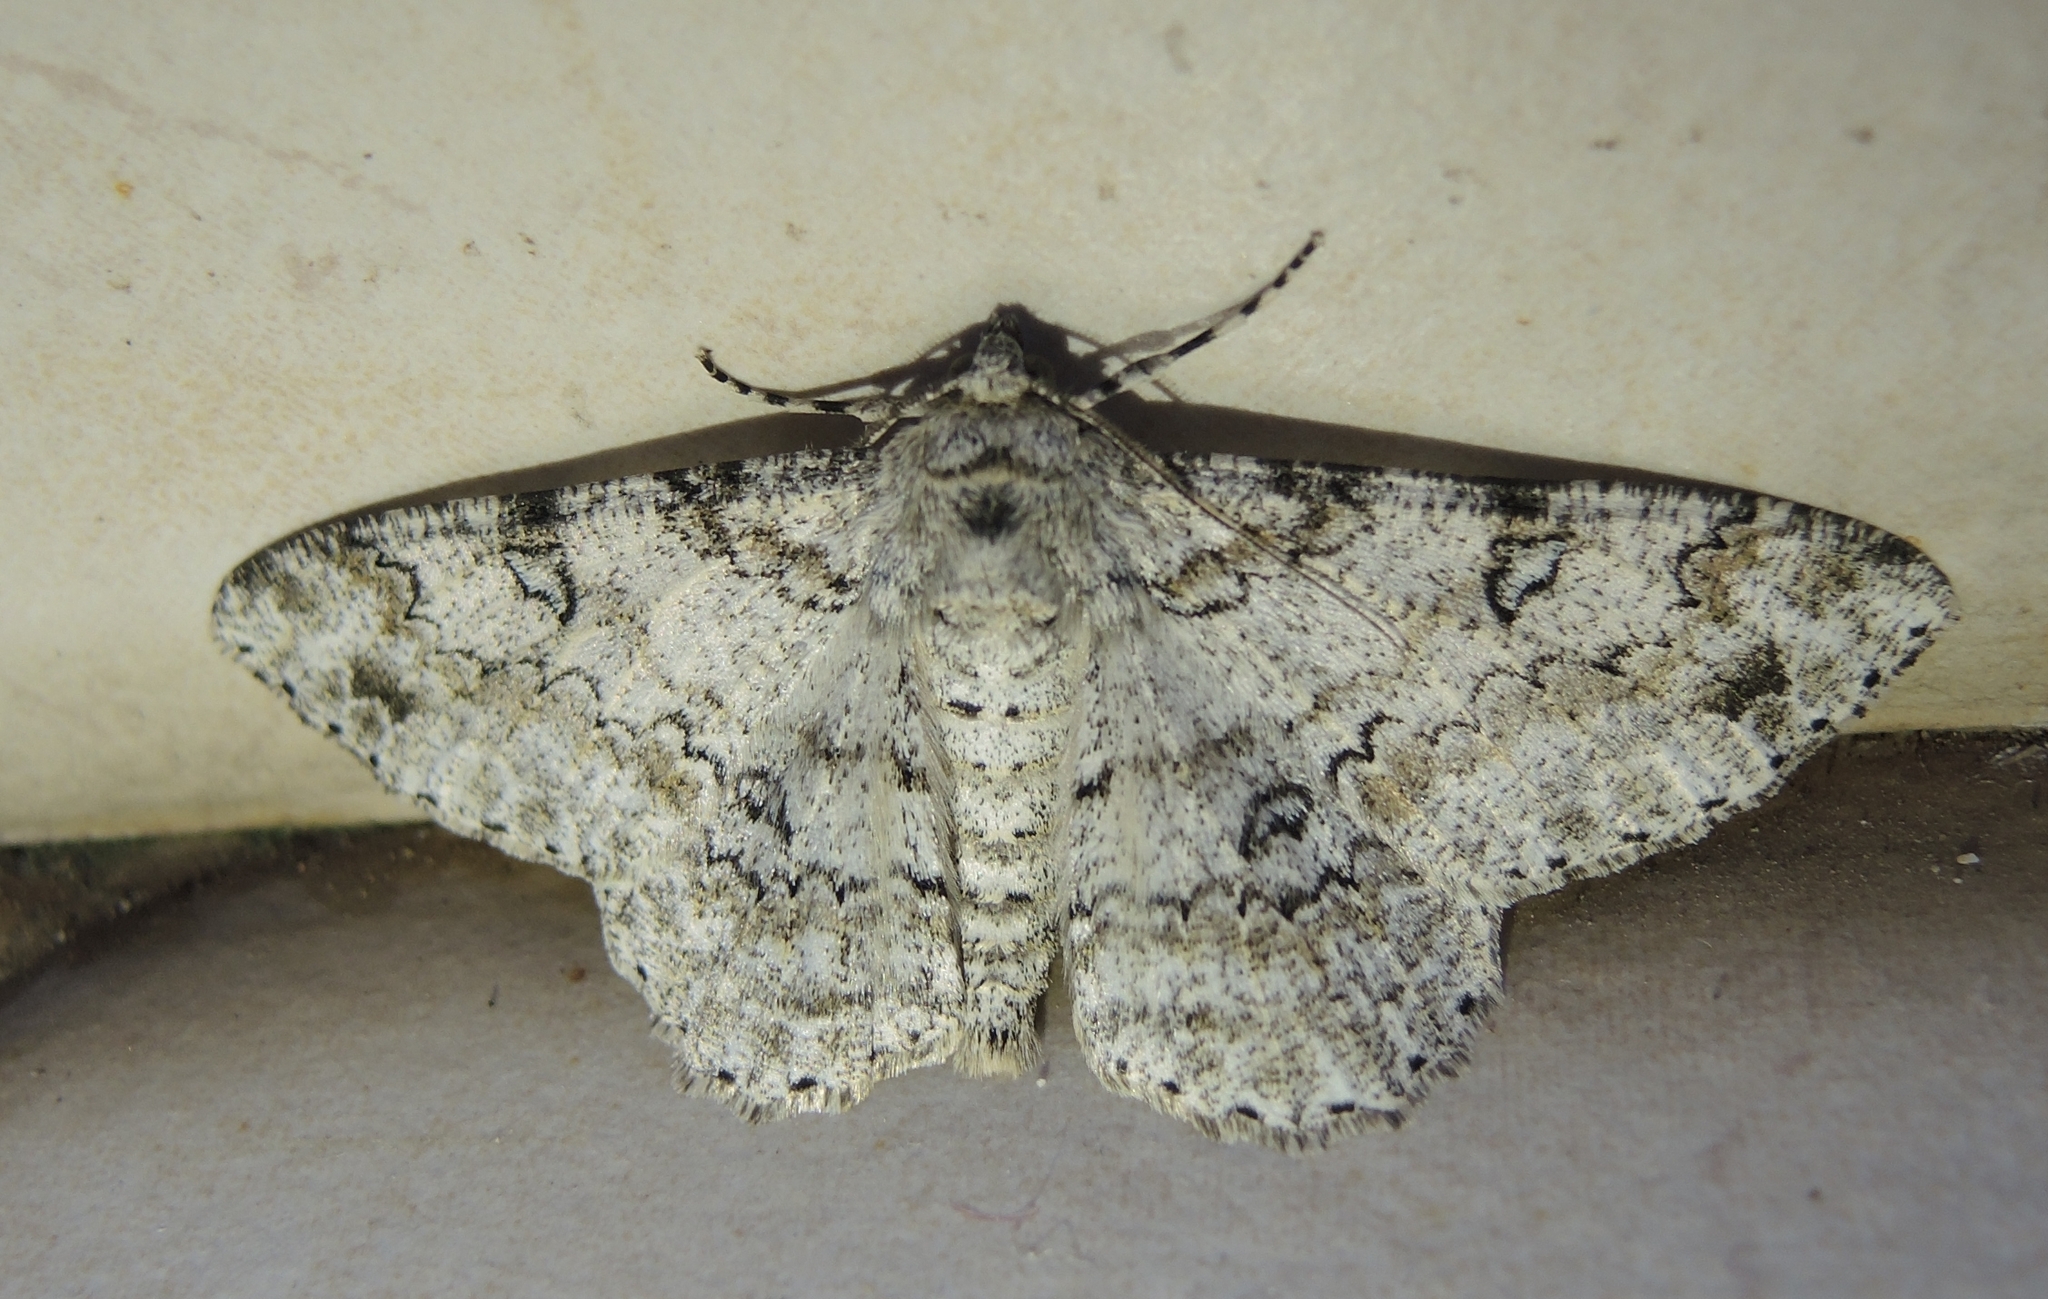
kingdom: Animalia
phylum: Arthropoda
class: Insecta
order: Lepidoptera
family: Geometridae
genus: Ascotis
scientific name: Ascotis selenaria
